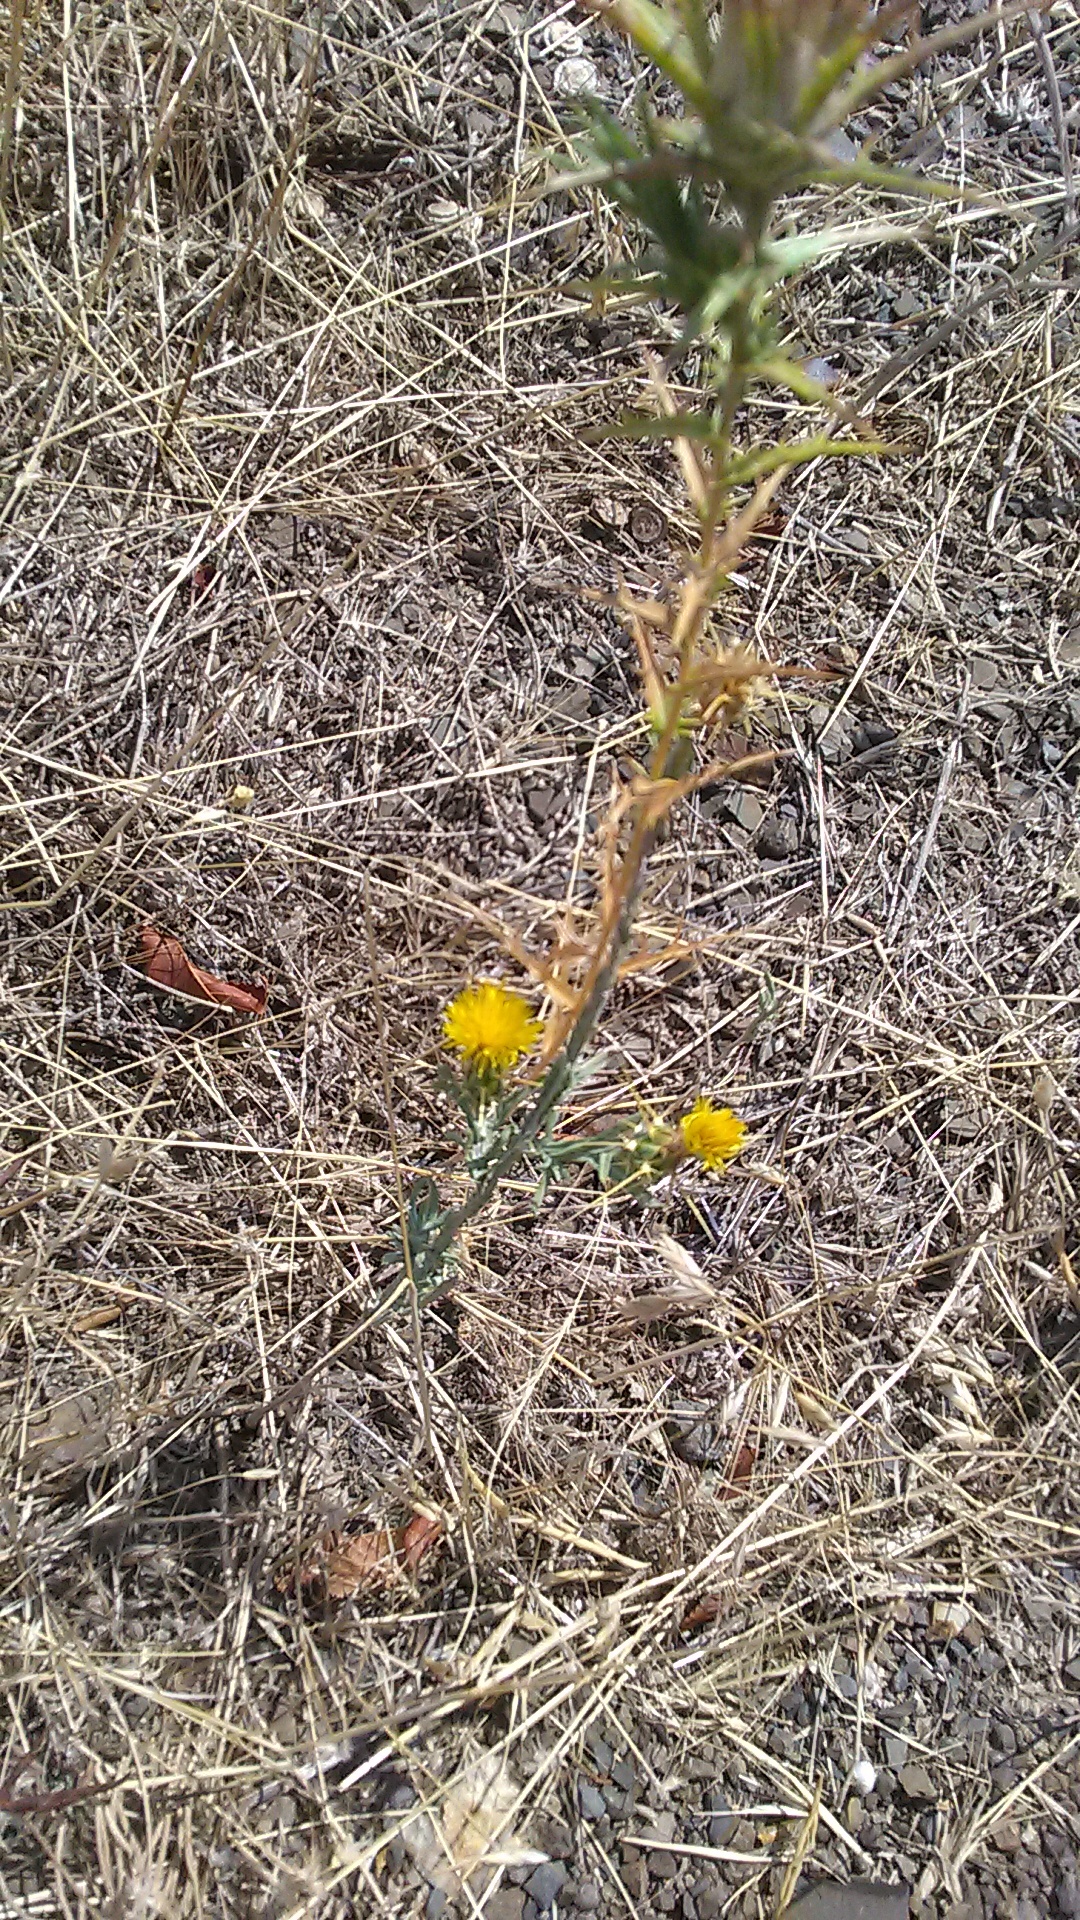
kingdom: Plantae
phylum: Tracheophyta
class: Magnoliopsida
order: Asterales
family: Asteraceae
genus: Centaurea
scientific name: Centaurea solstitialis
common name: Yellow star-thistle
